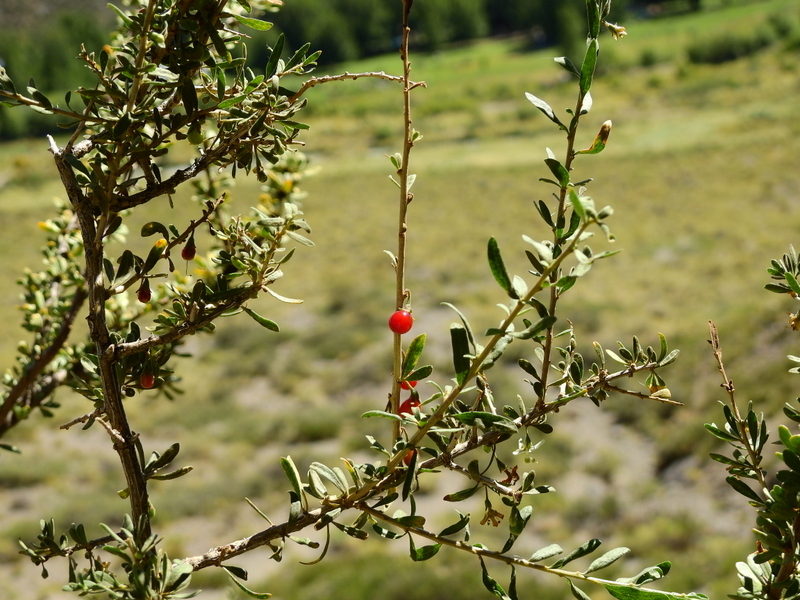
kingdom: Plantae
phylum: Tracheophyta
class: Magnoliopsida
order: Solanales
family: Solanaceae
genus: Lycium
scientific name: Lycium chilense
